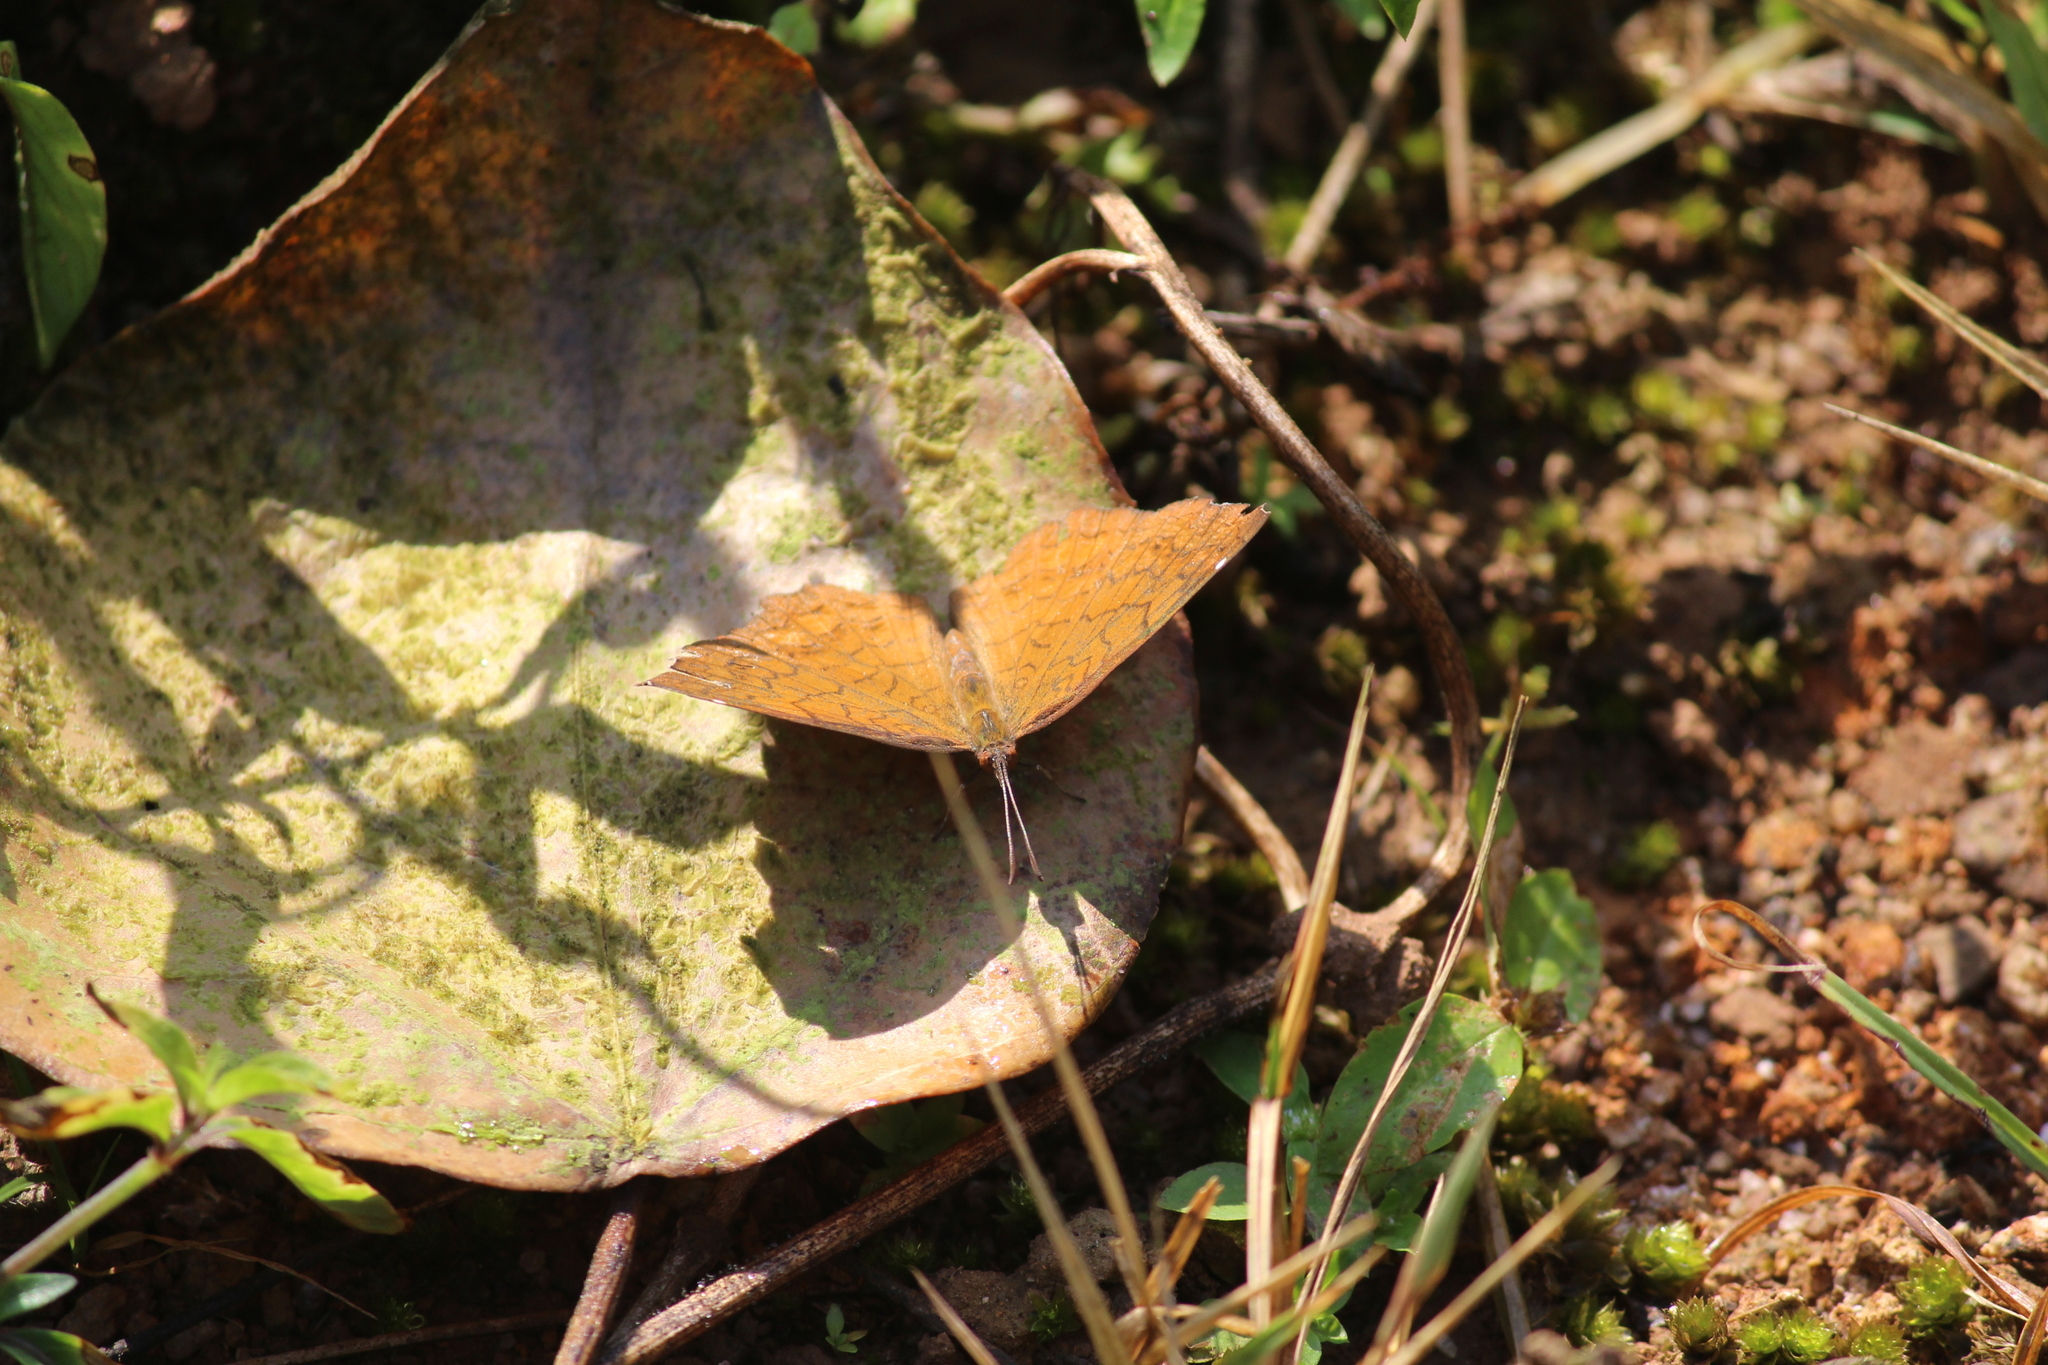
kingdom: Animalia
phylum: Arthropoda
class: Insecta
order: Lepidoptera
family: Nymphalidae
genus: Ariadne
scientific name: Ariadne ariadne
